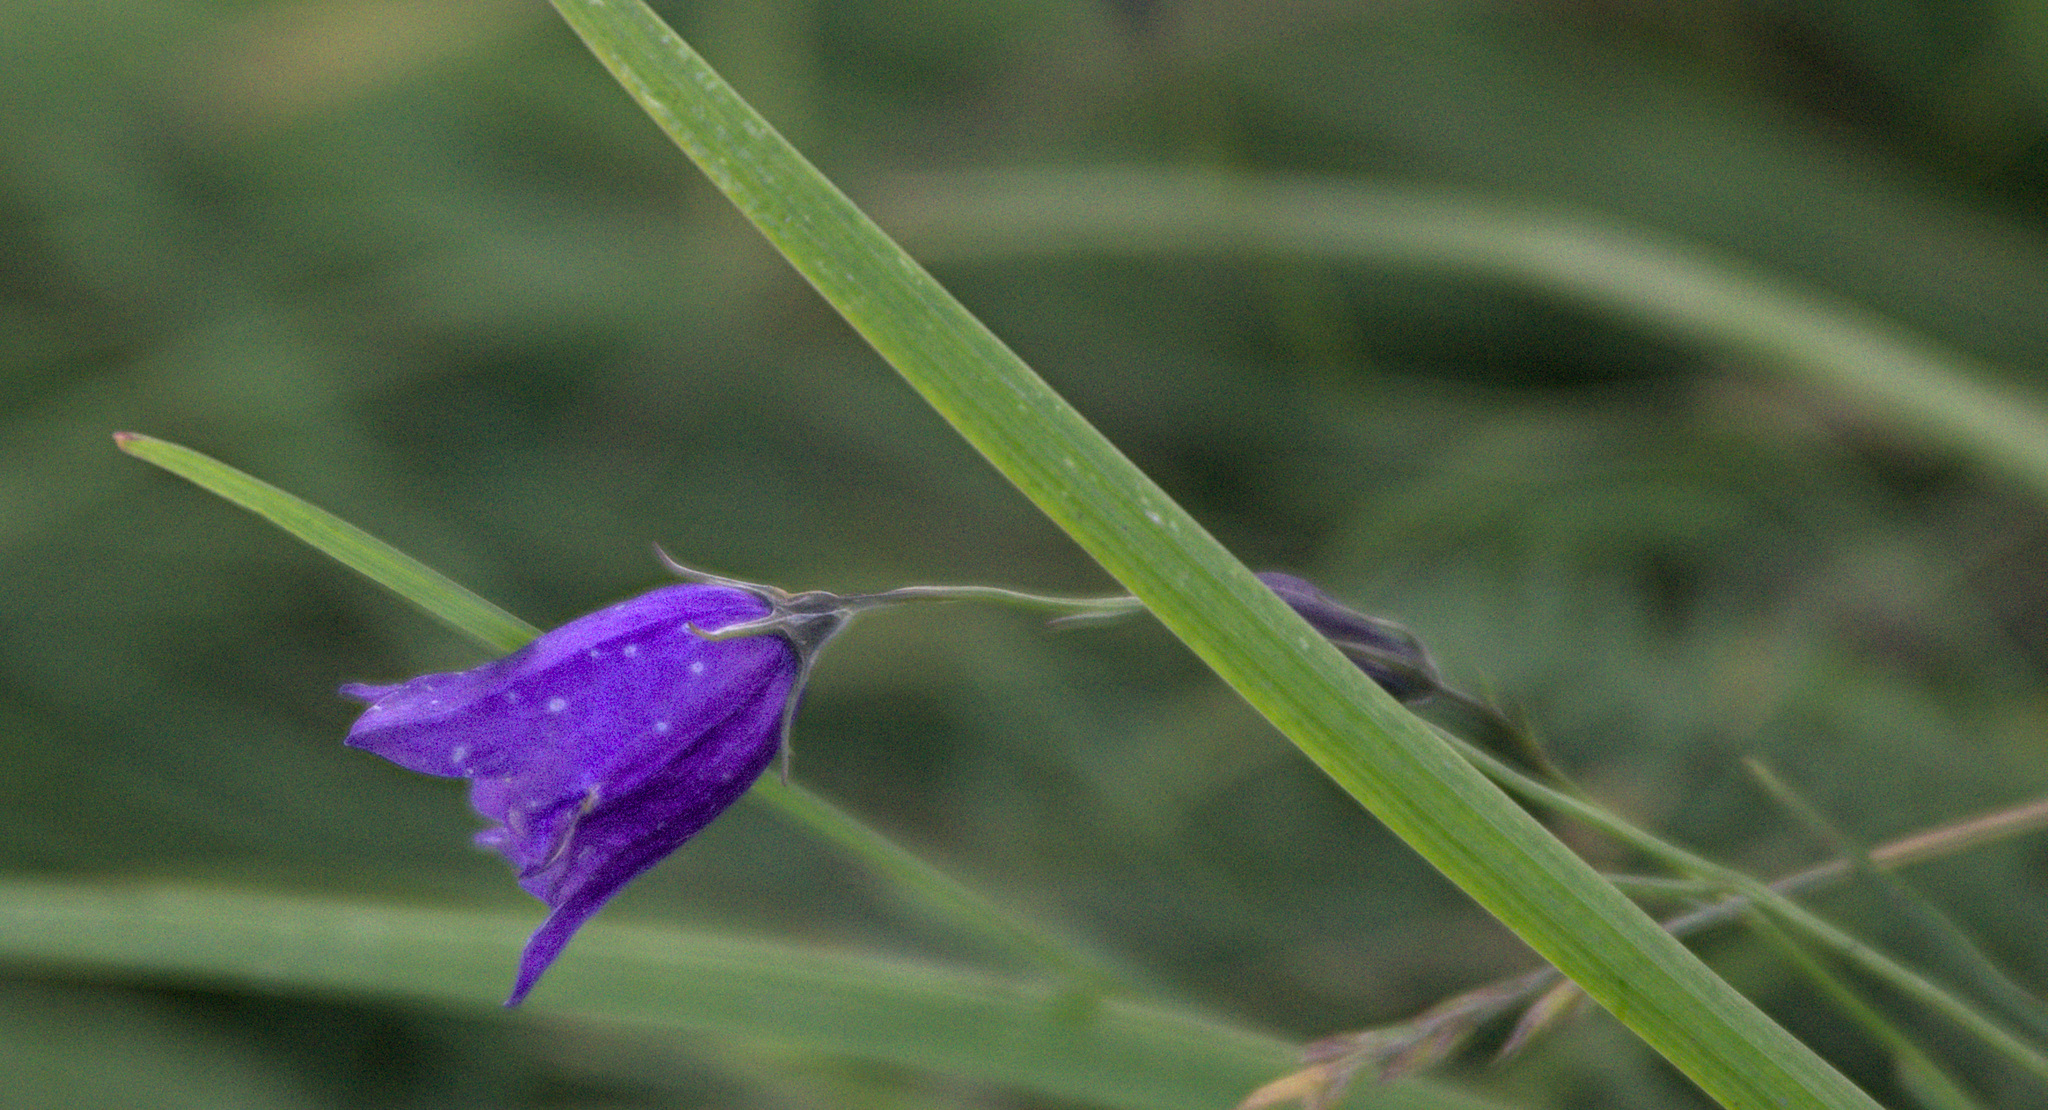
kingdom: Plantae
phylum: Tracheophyta
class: Magnoliopsida
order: Asterales
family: Campanulaceae
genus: Campanula
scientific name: Campanula rotundifolia
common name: Harebell
